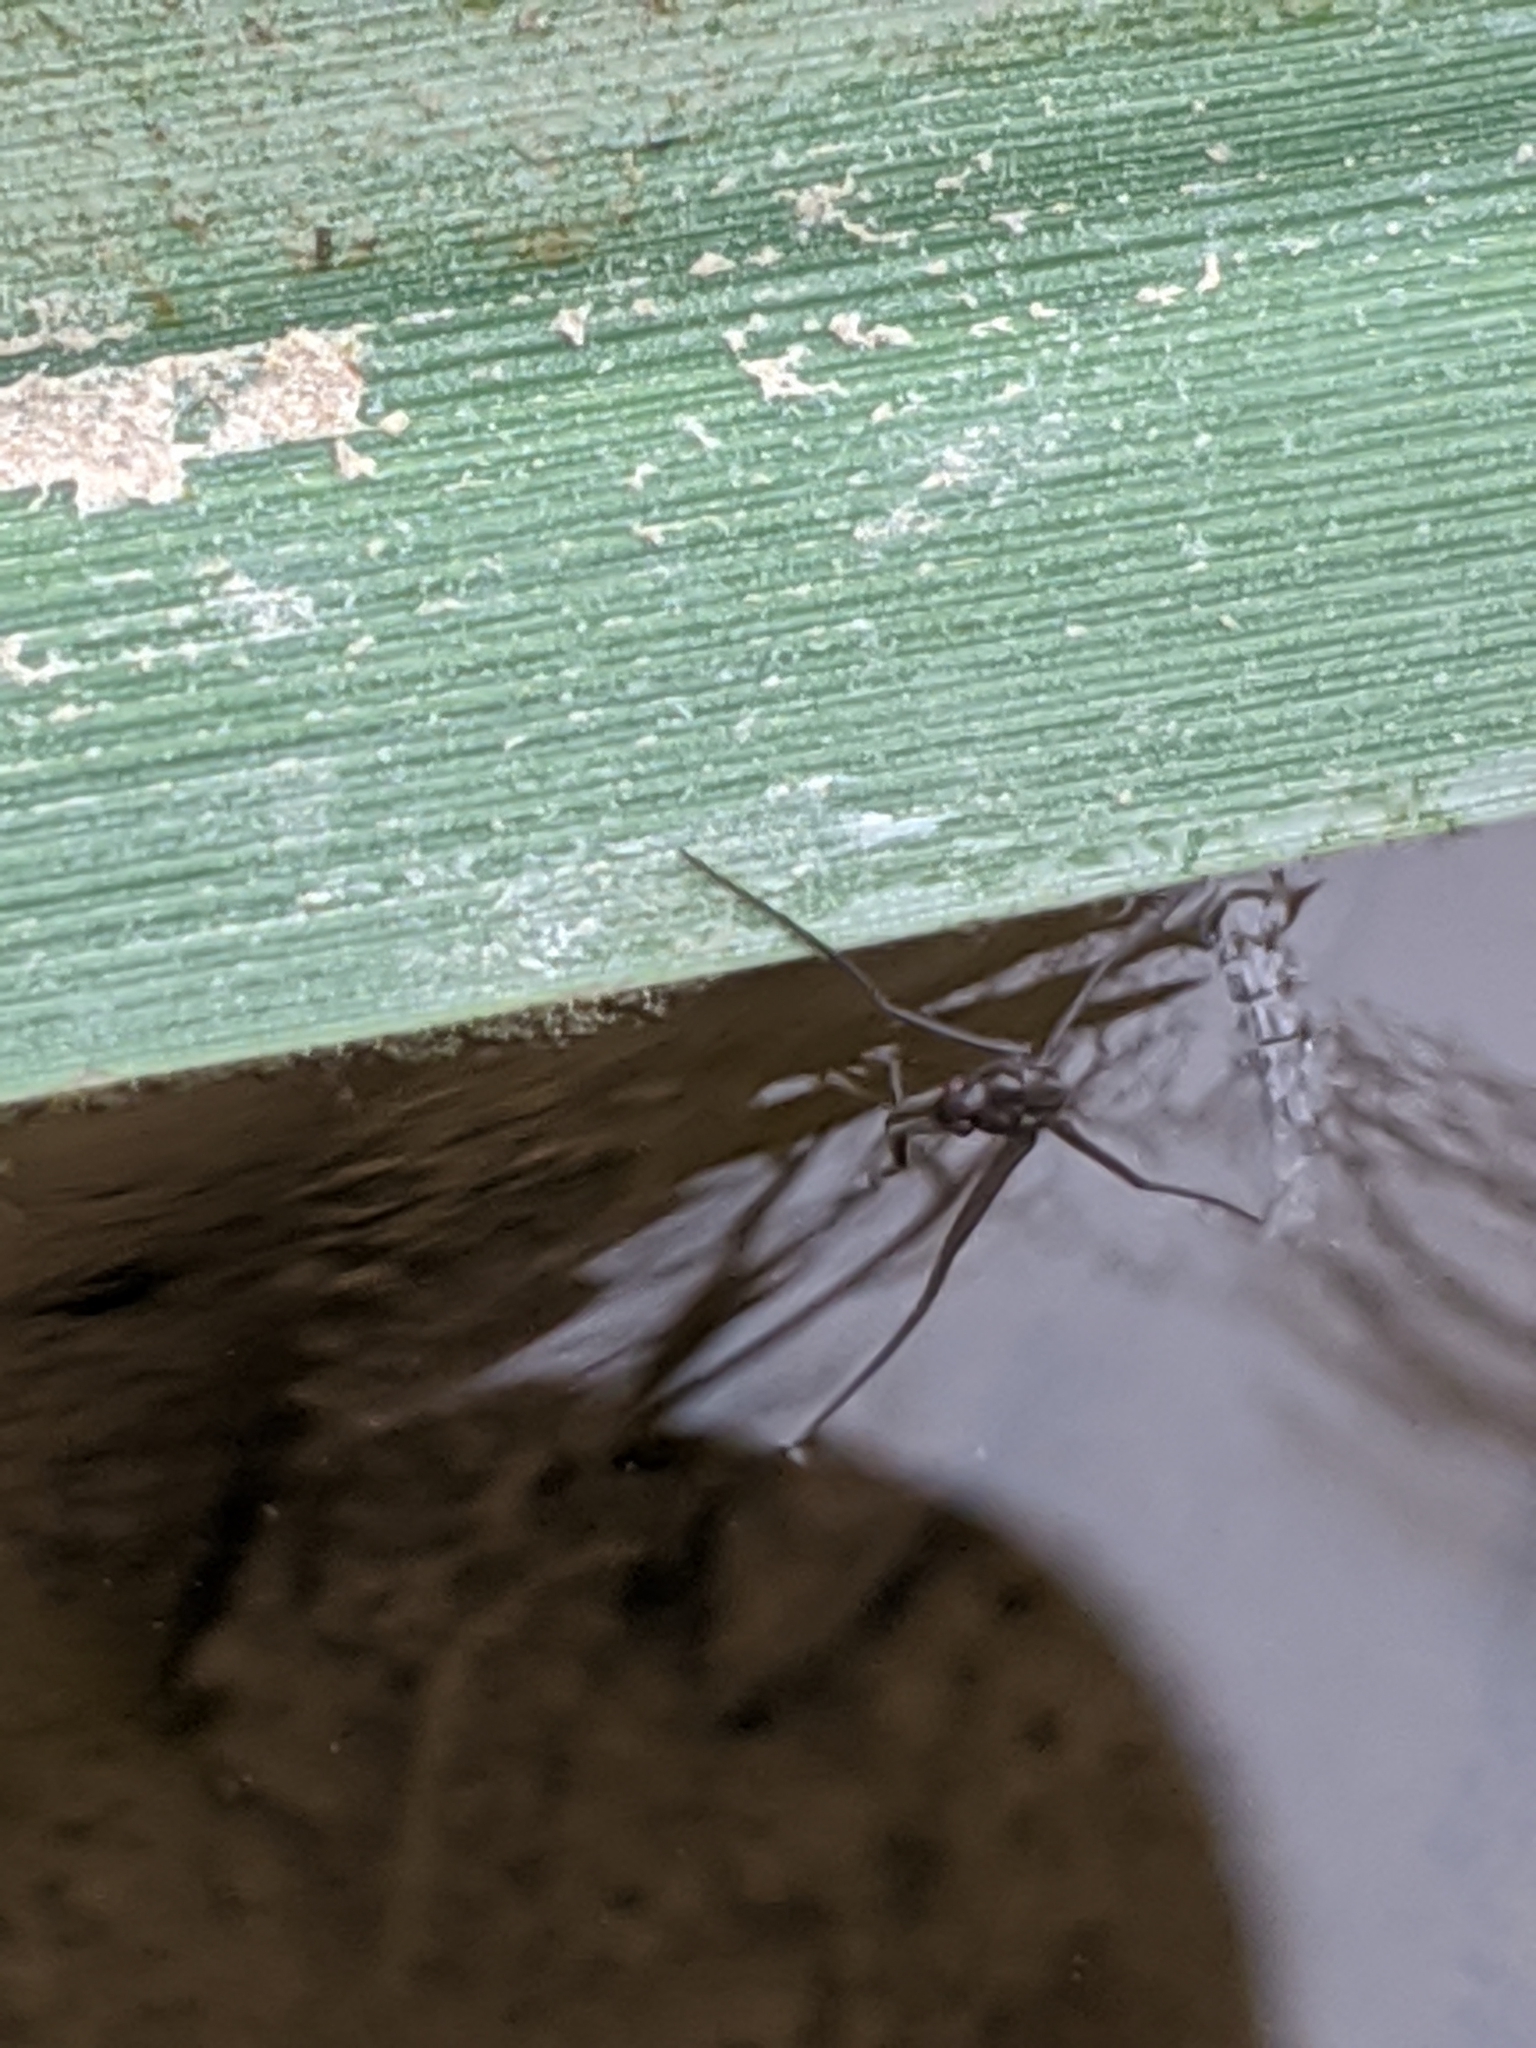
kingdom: Animalia
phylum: Arthropoda
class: Insecta
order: Hemiptera
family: Gerridae
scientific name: Gerridae
